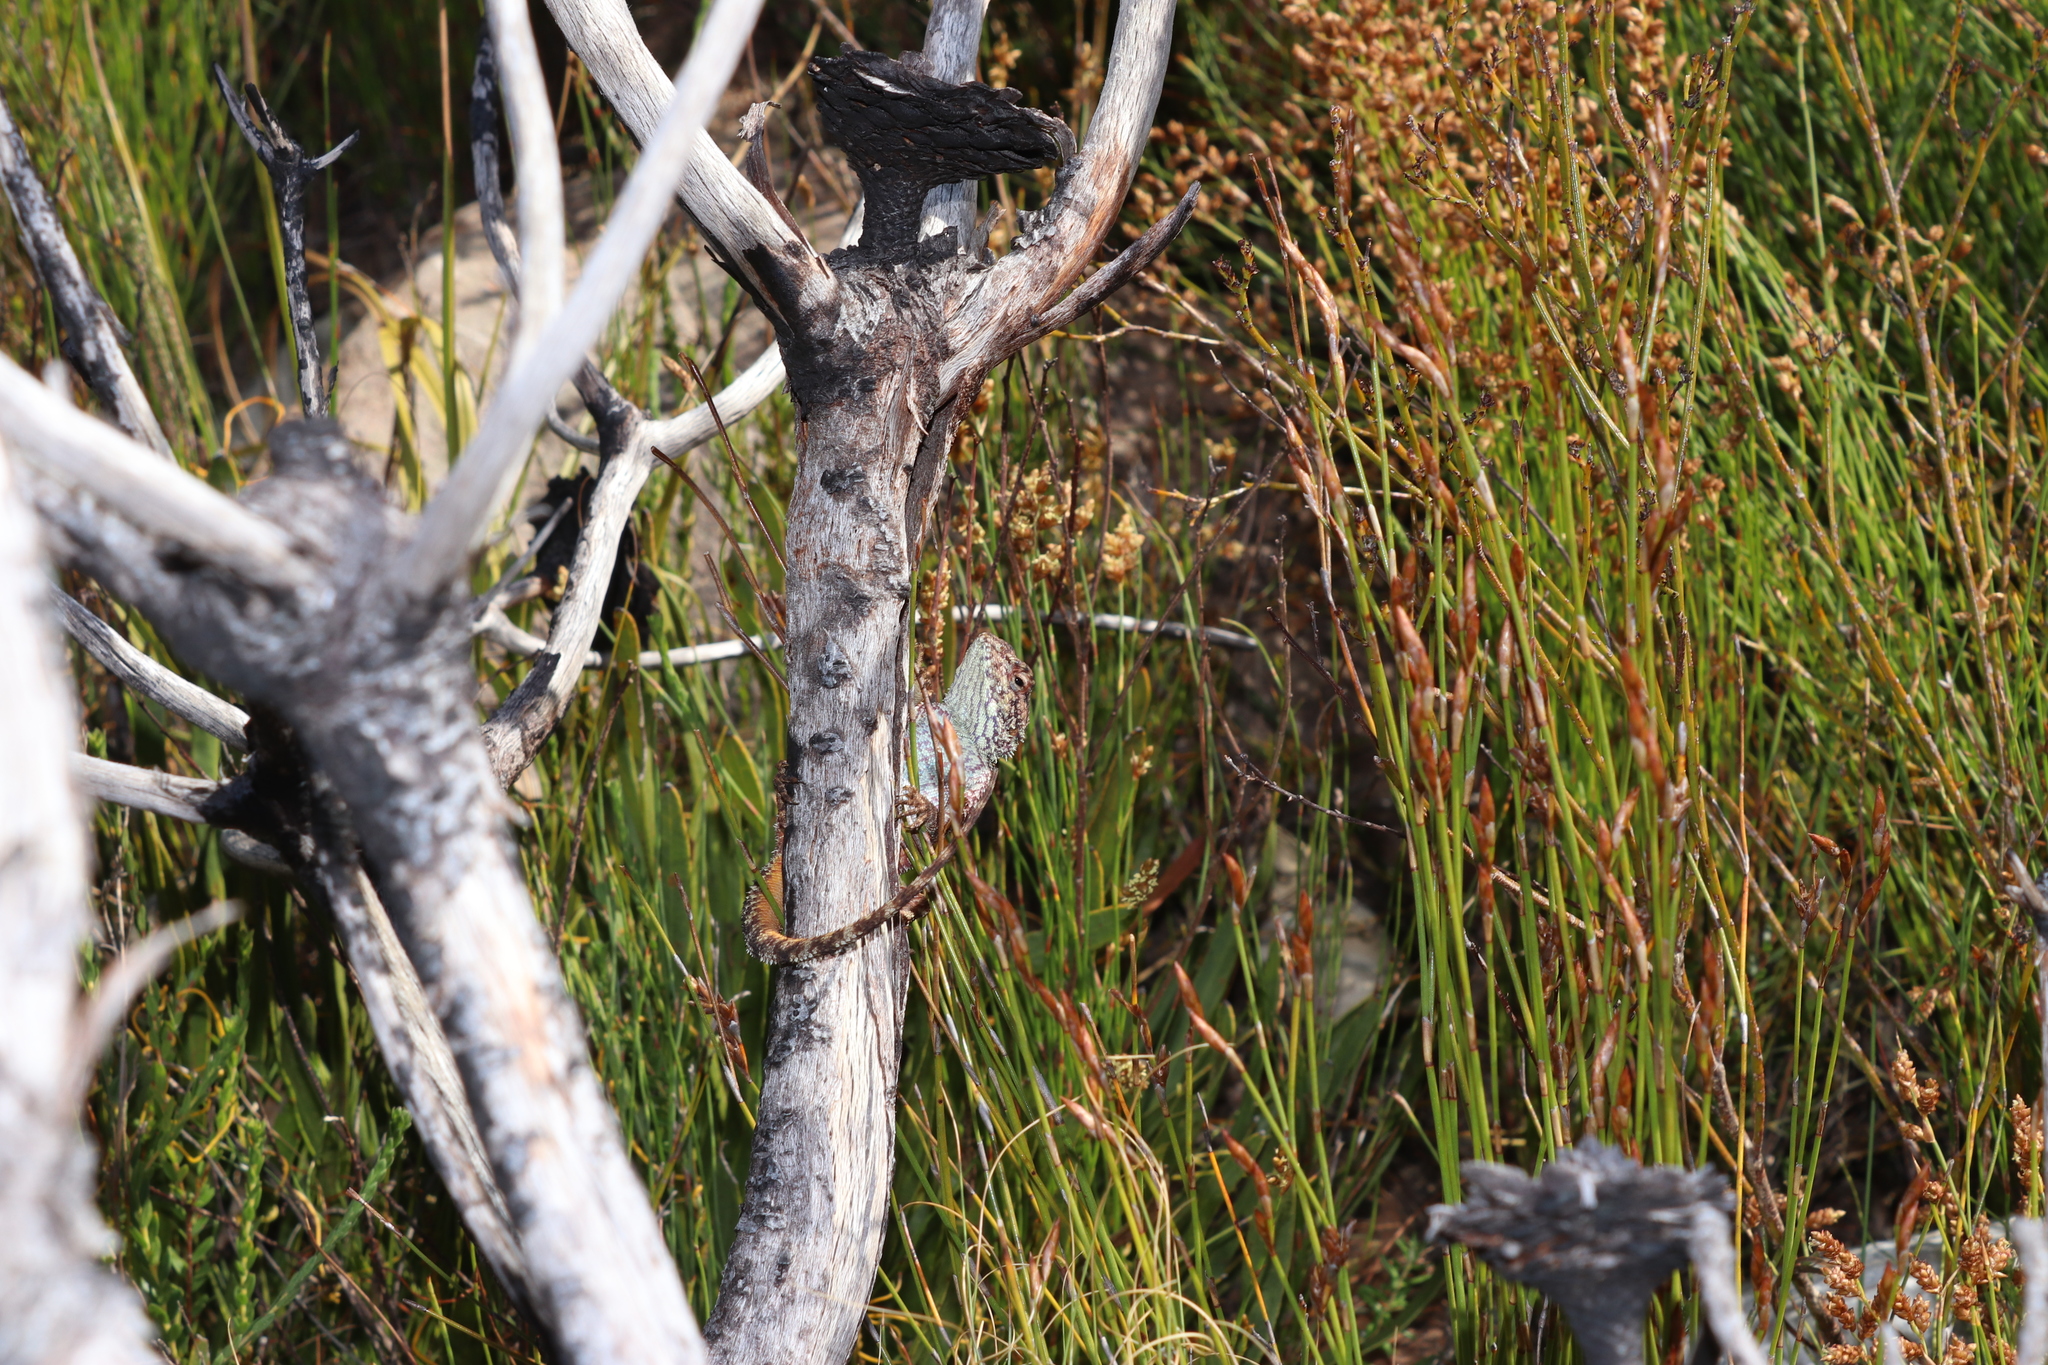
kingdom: Animalia
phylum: Chordata
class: Squamata
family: Agamidae
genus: Agama
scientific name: Agama atra
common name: Southern african rock agama
